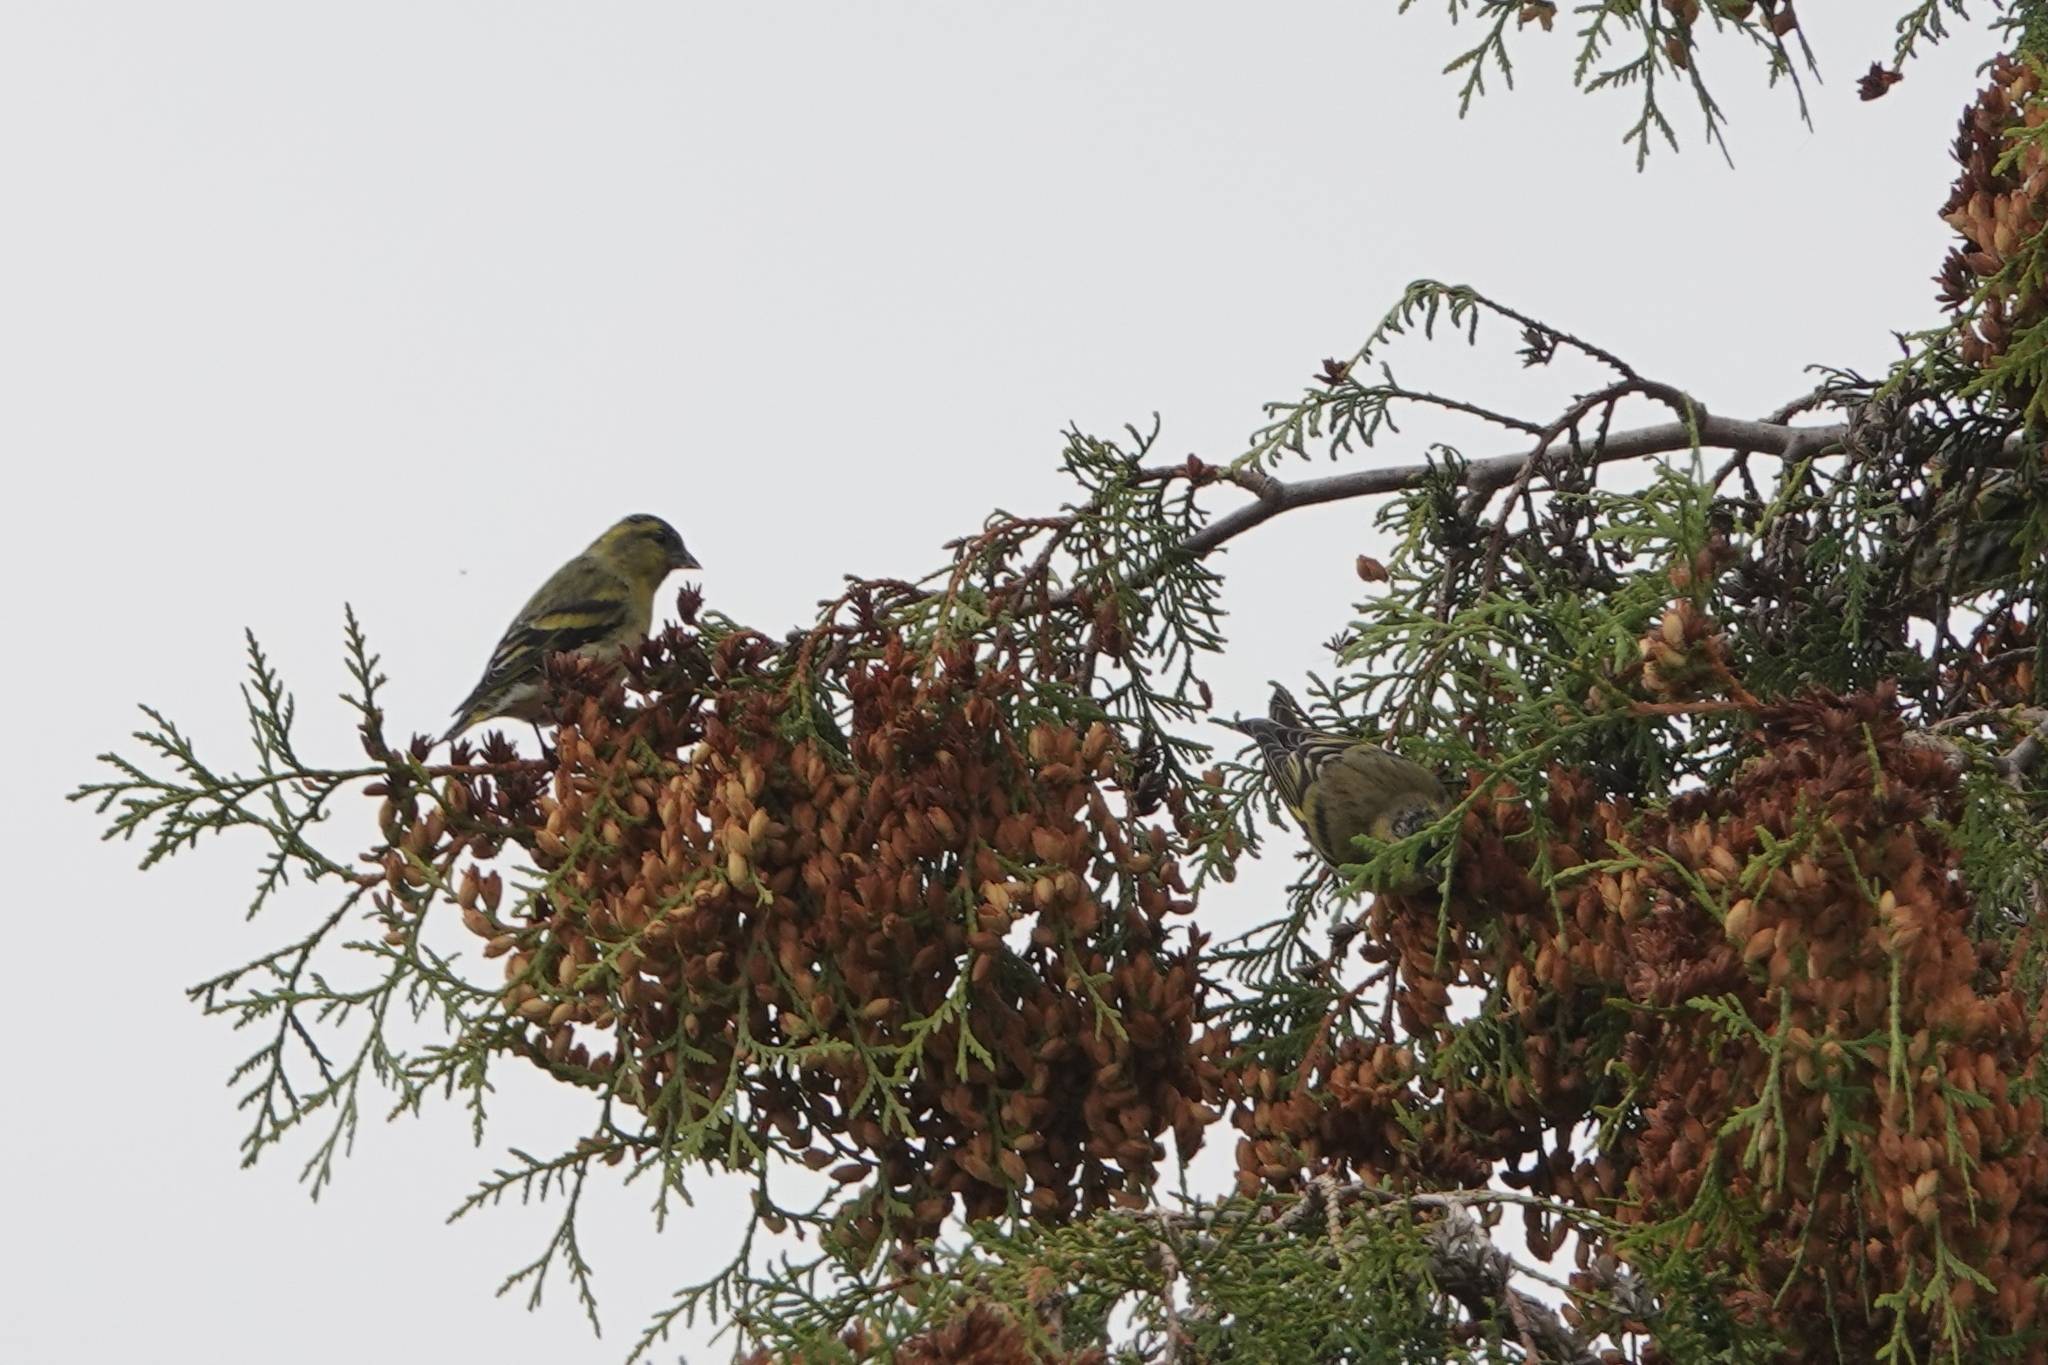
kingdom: Animalia
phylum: Chordata
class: Aves
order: Passeriformes
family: Fringillidae
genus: Spinus
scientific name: Spinus spinus
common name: Eurasian siskin
